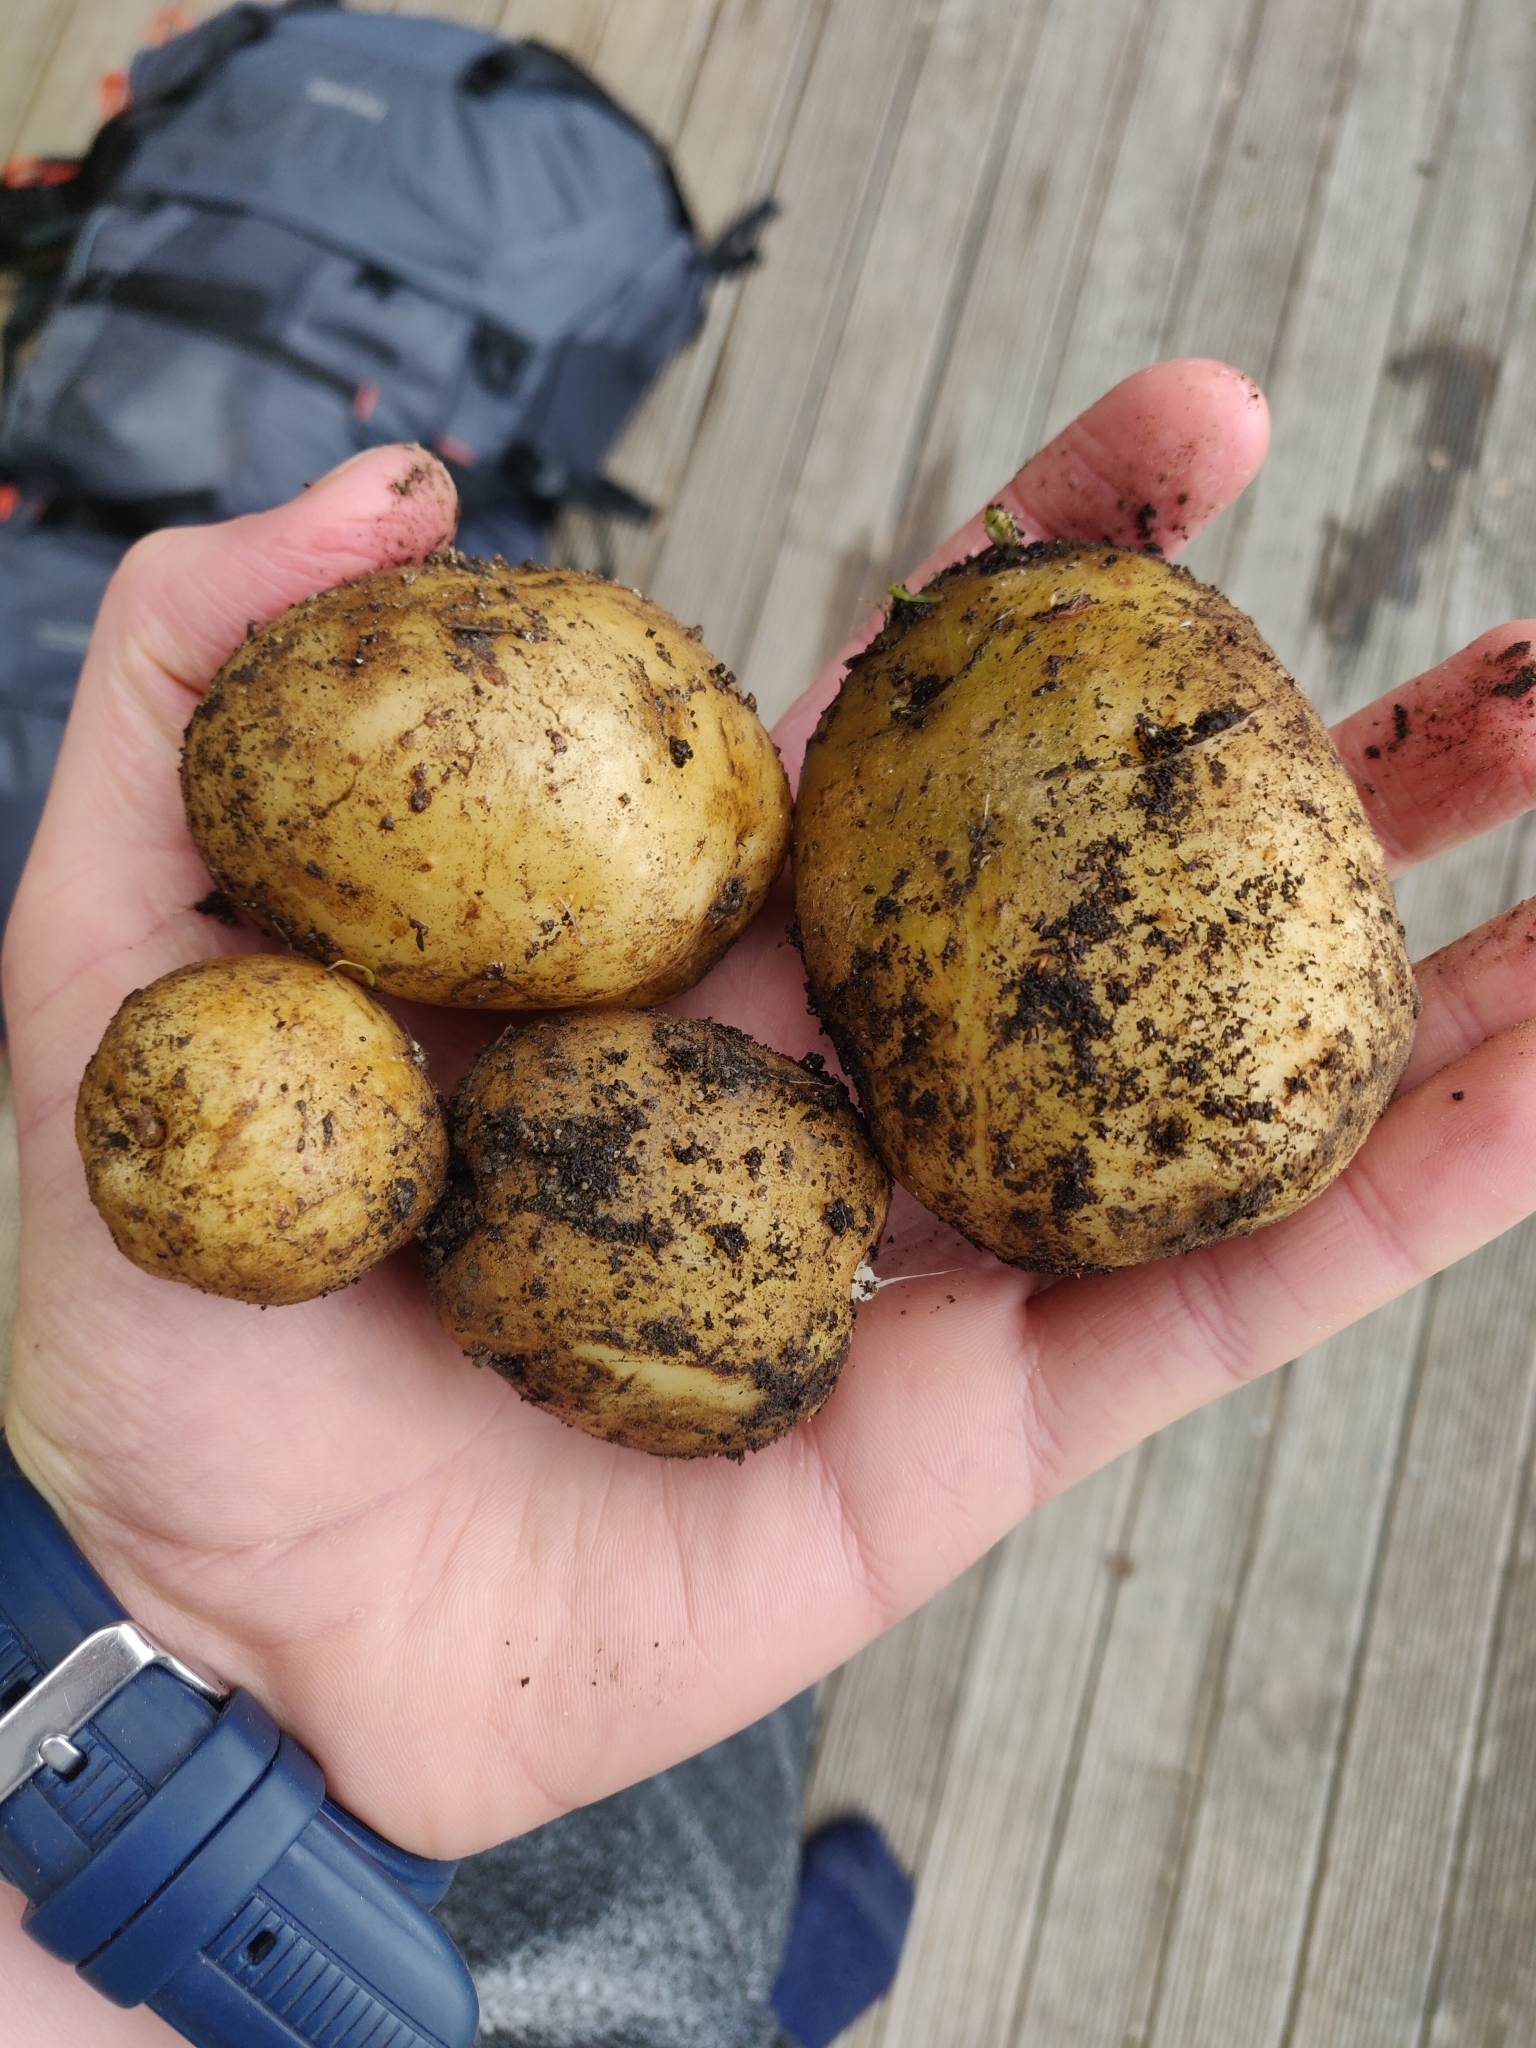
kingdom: Plantae
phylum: Tracheophyta
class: Magnoliopsida
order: Solanales
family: Solanaceae
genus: Solanum
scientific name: Solanum tuberosum
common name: Potato
